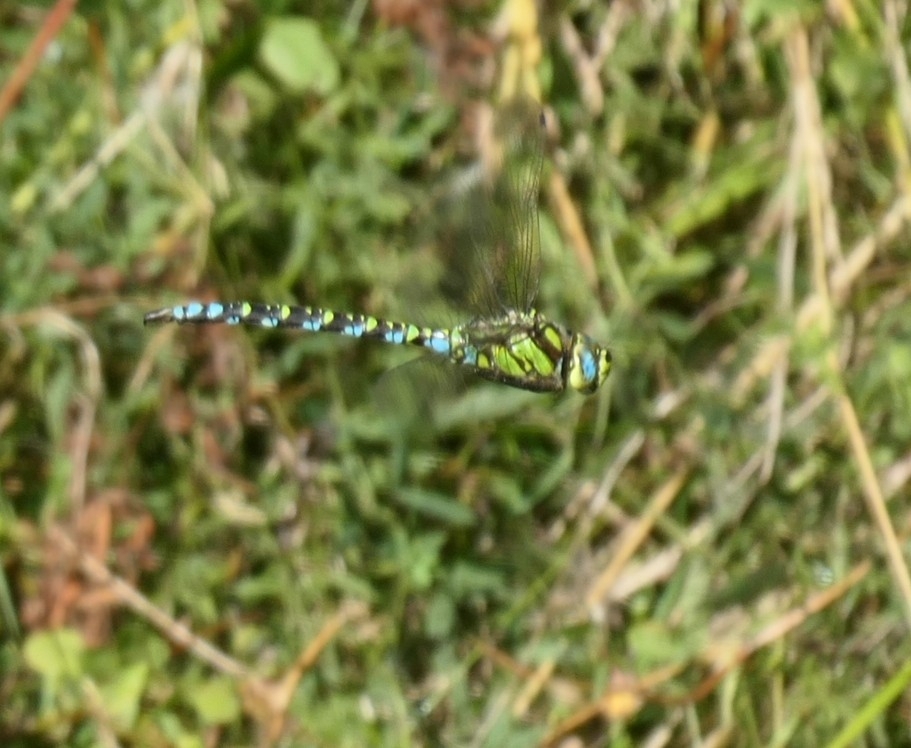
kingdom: Animalia
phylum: Arthropoda
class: Insecta
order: Odonata
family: Aeshnidae
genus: Aeshna
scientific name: Aeshna cyanea
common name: Southern hawker
